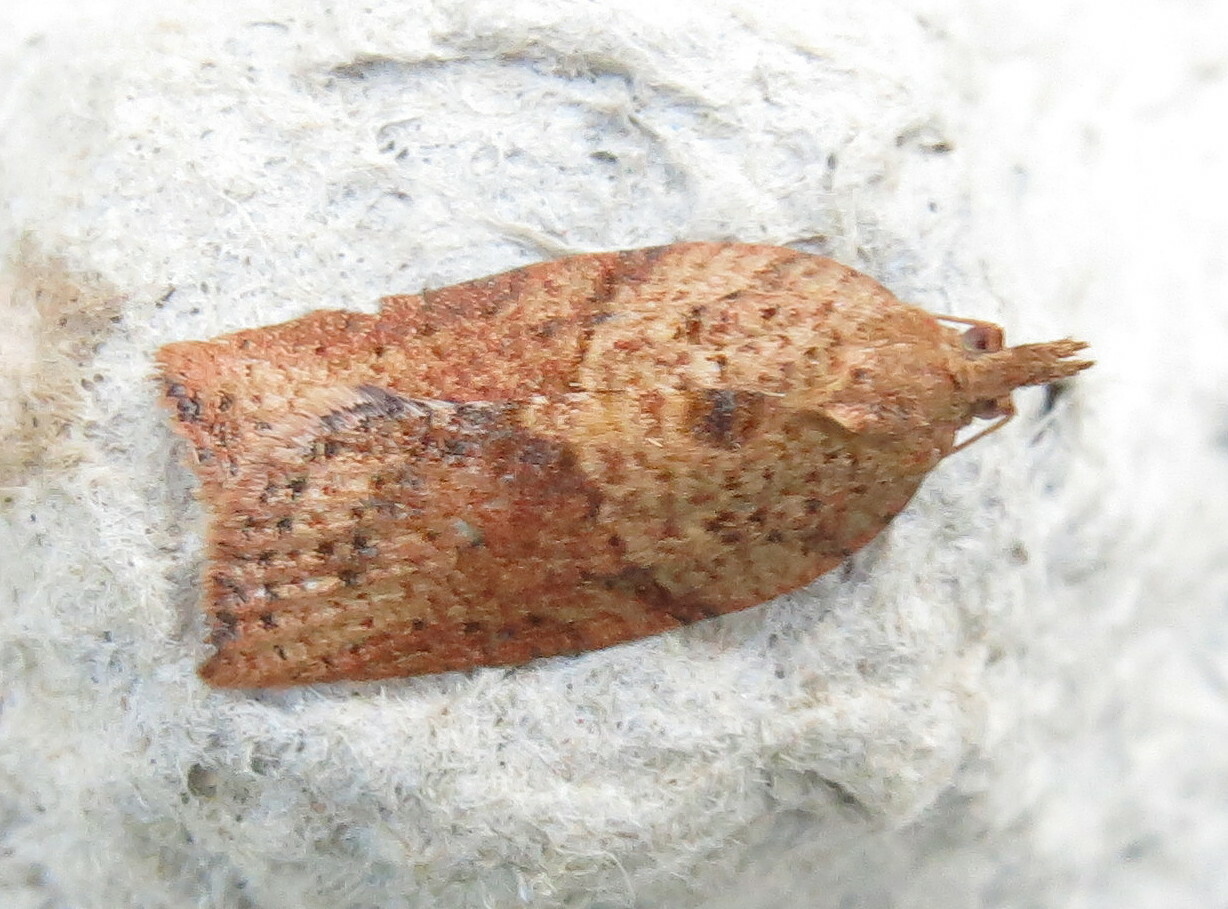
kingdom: Animalia
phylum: Arthropoda
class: Insecta
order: Lepidoptera
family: Tortricidae
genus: Epiphyas
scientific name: Epiphyas postvittana
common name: Light brown apple moth
